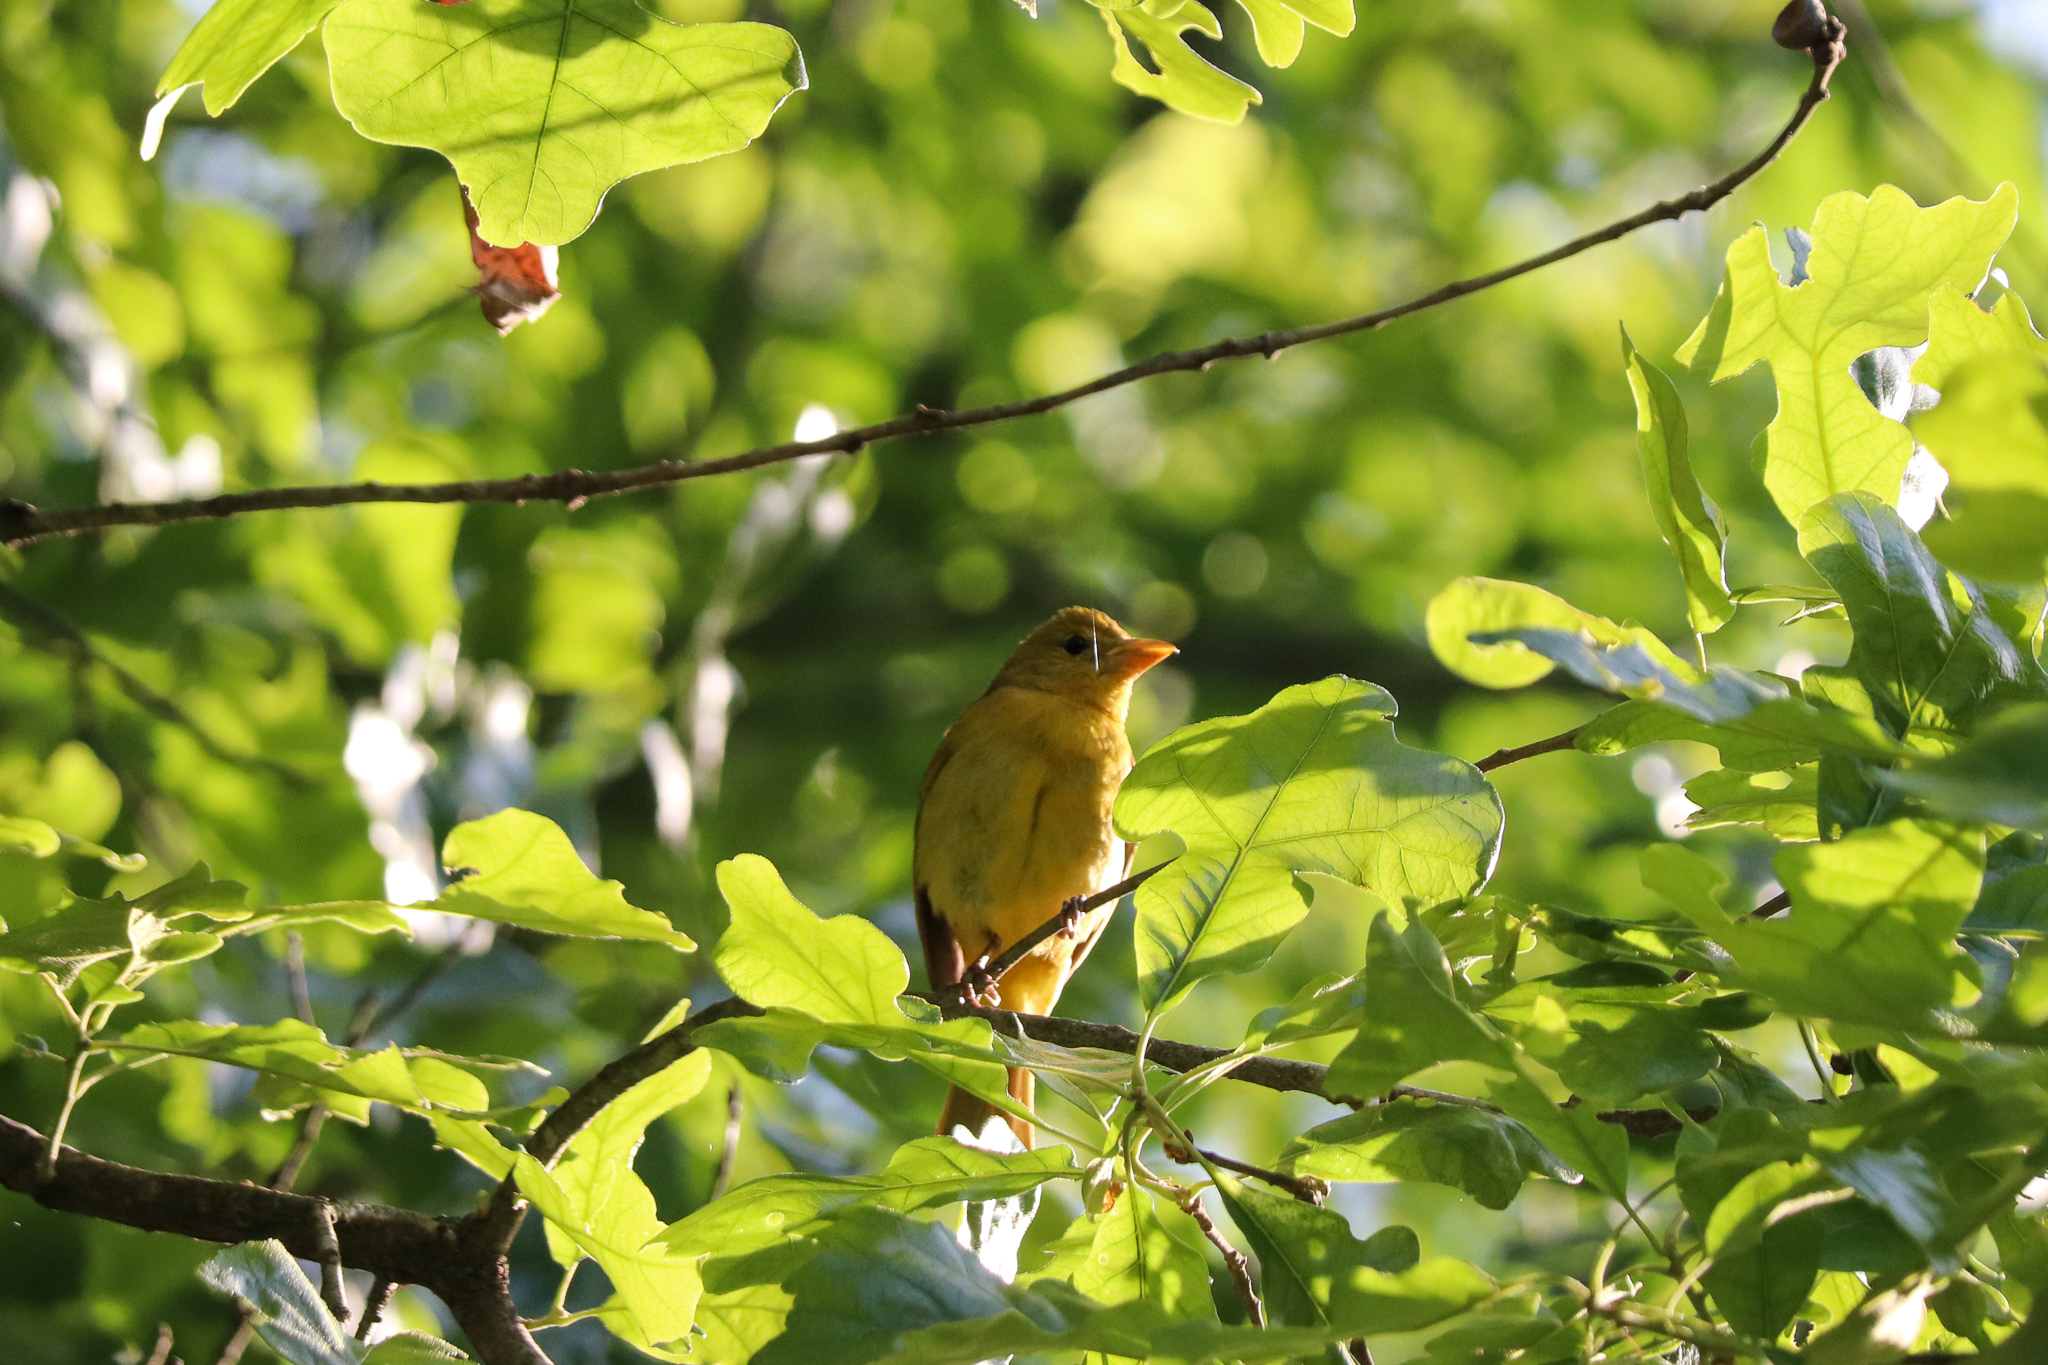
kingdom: Animalia
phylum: Chordata
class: Aves
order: Passeriformes
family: Cardinalidae
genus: Piranga
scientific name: Piranga rubra
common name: Summer tanager
